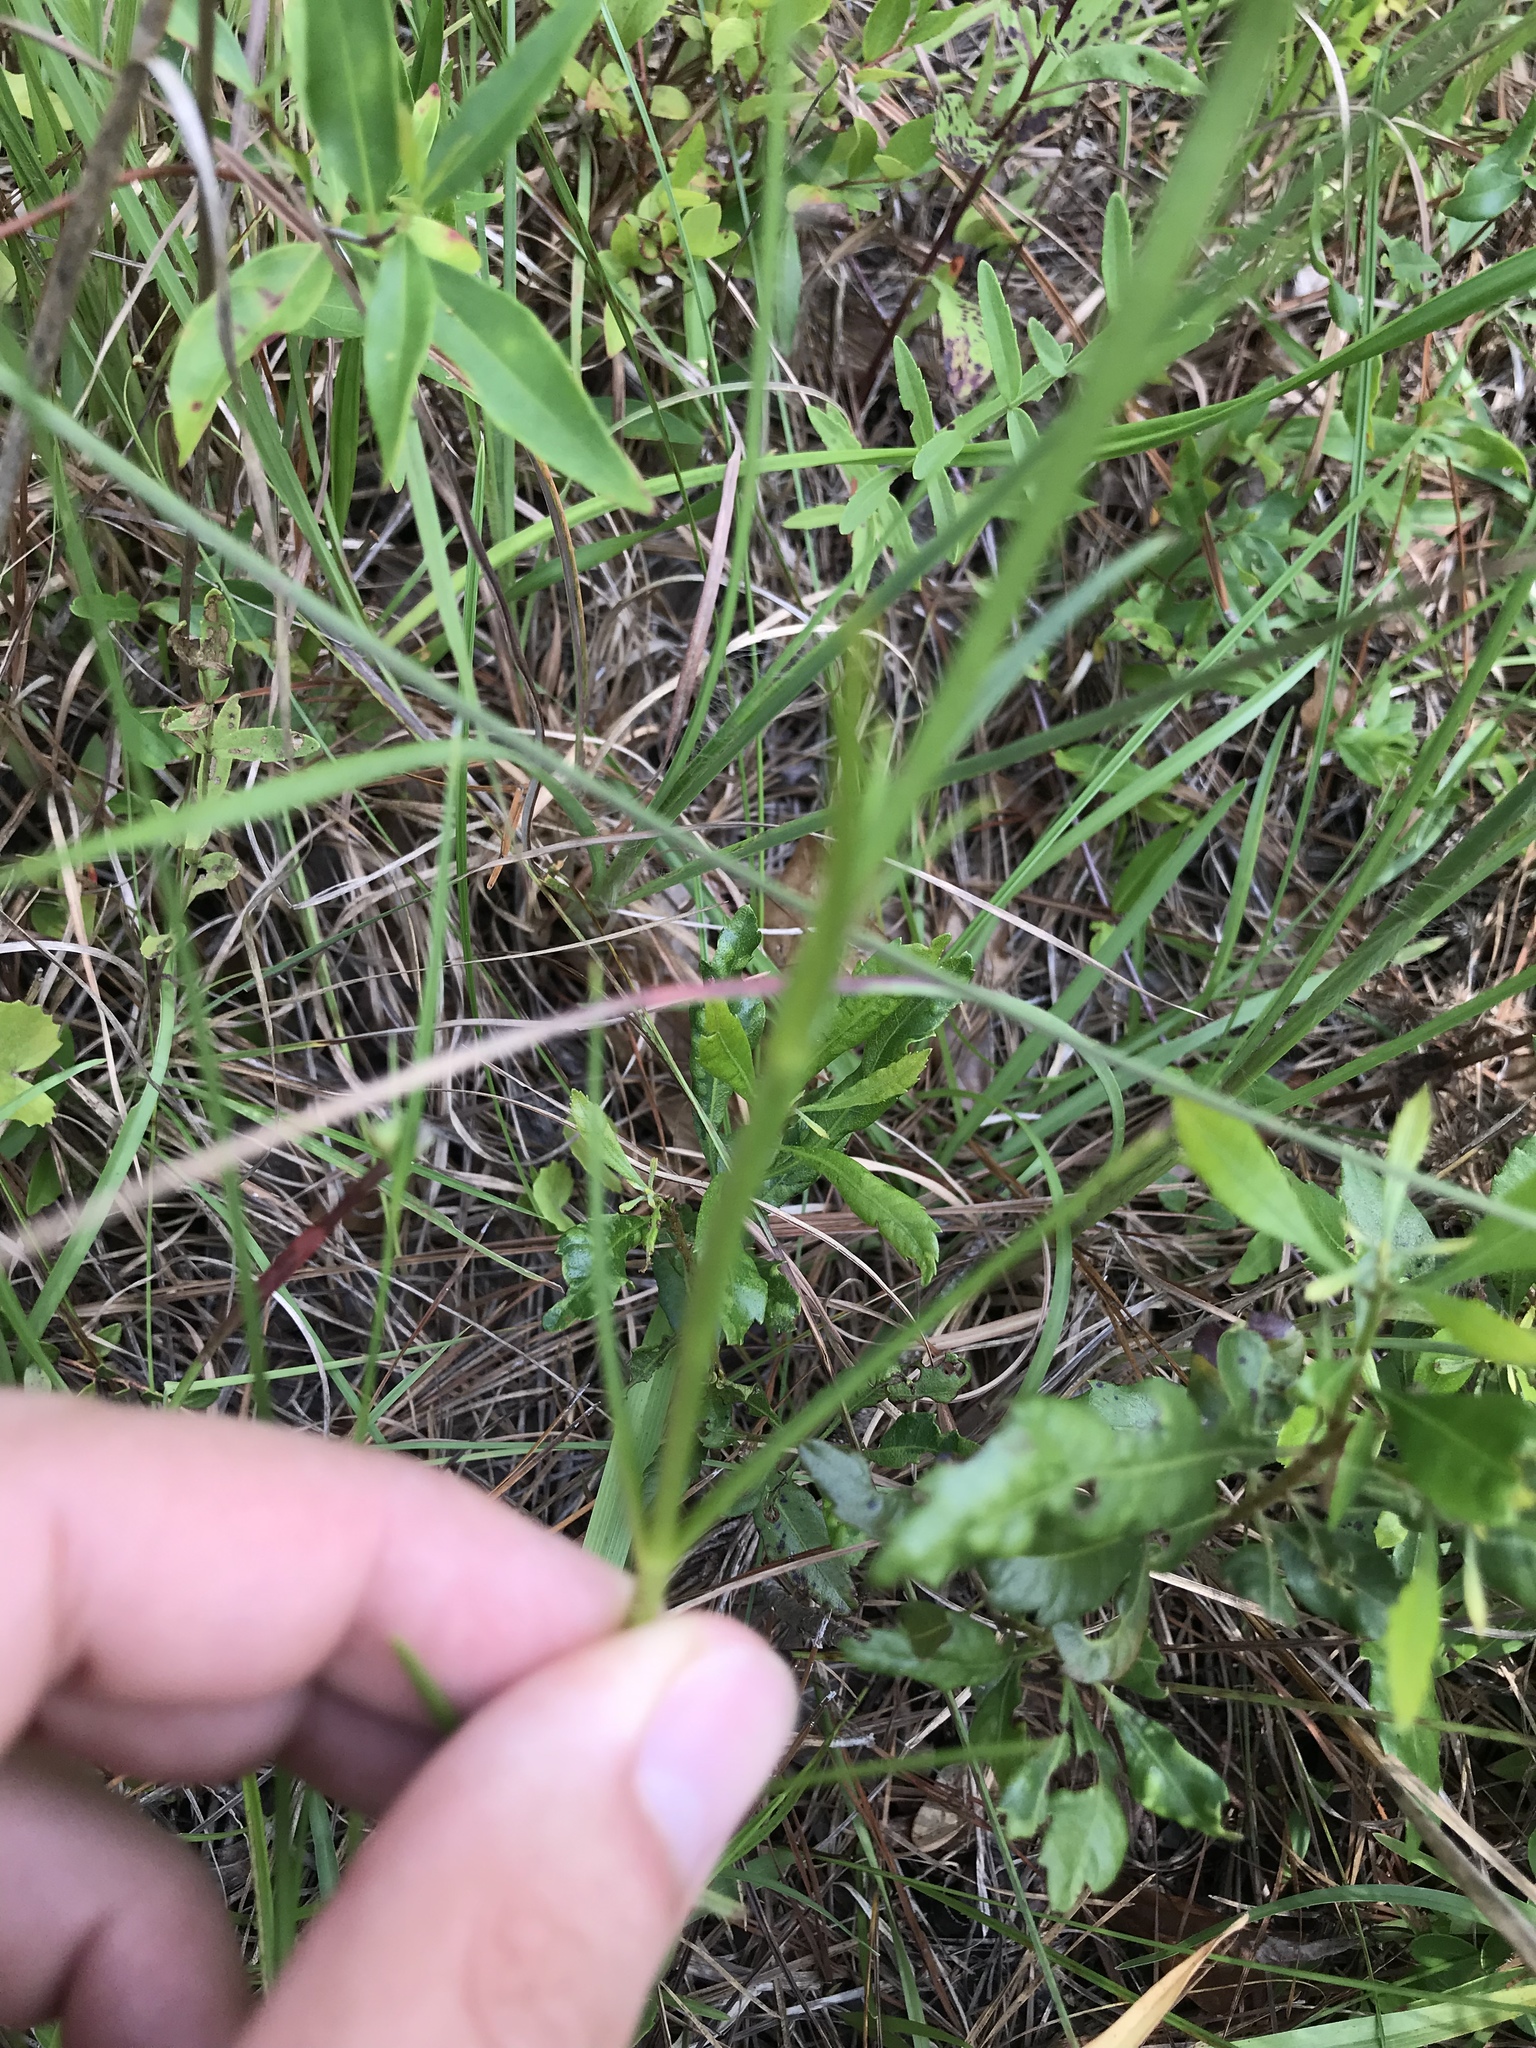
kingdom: Plantae
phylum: Tracheophyta
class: Magnoliopsida
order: Gentianales
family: Gentianaceae
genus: Sabatia
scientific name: Sabatia gentianoides
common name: Pinewoods rose-gentian
